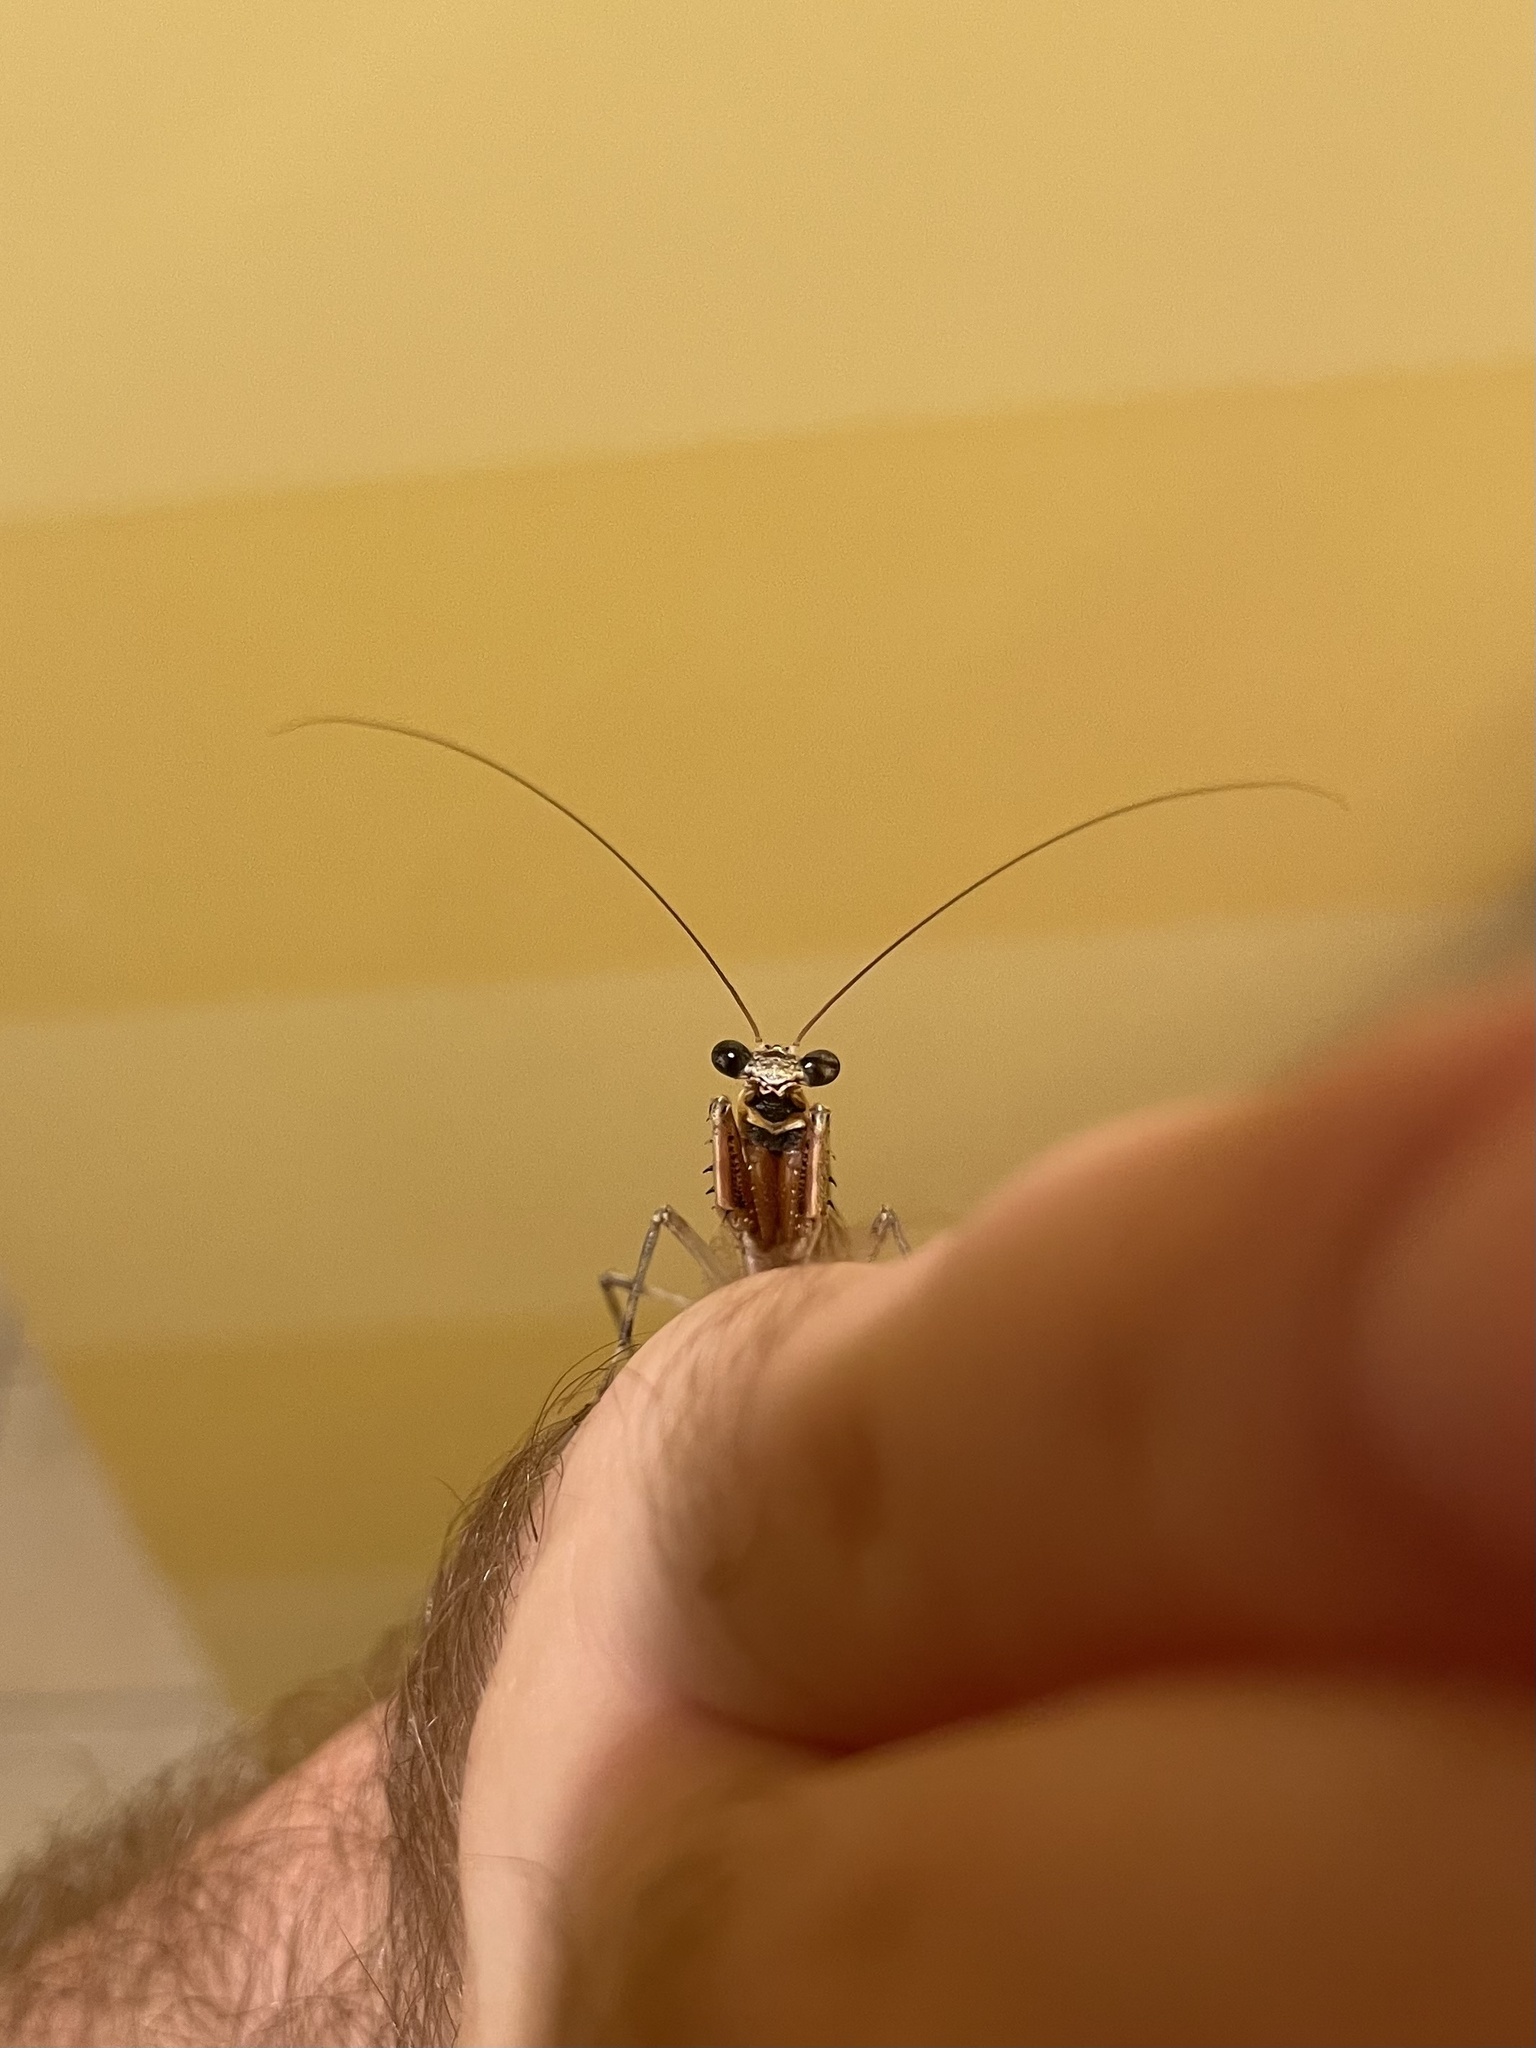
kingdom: Animalia
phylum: Arthropoda
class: Insecta
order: Mantodea
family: Epaphroditidae
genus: Gonatista
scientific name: Gonatista grisea
